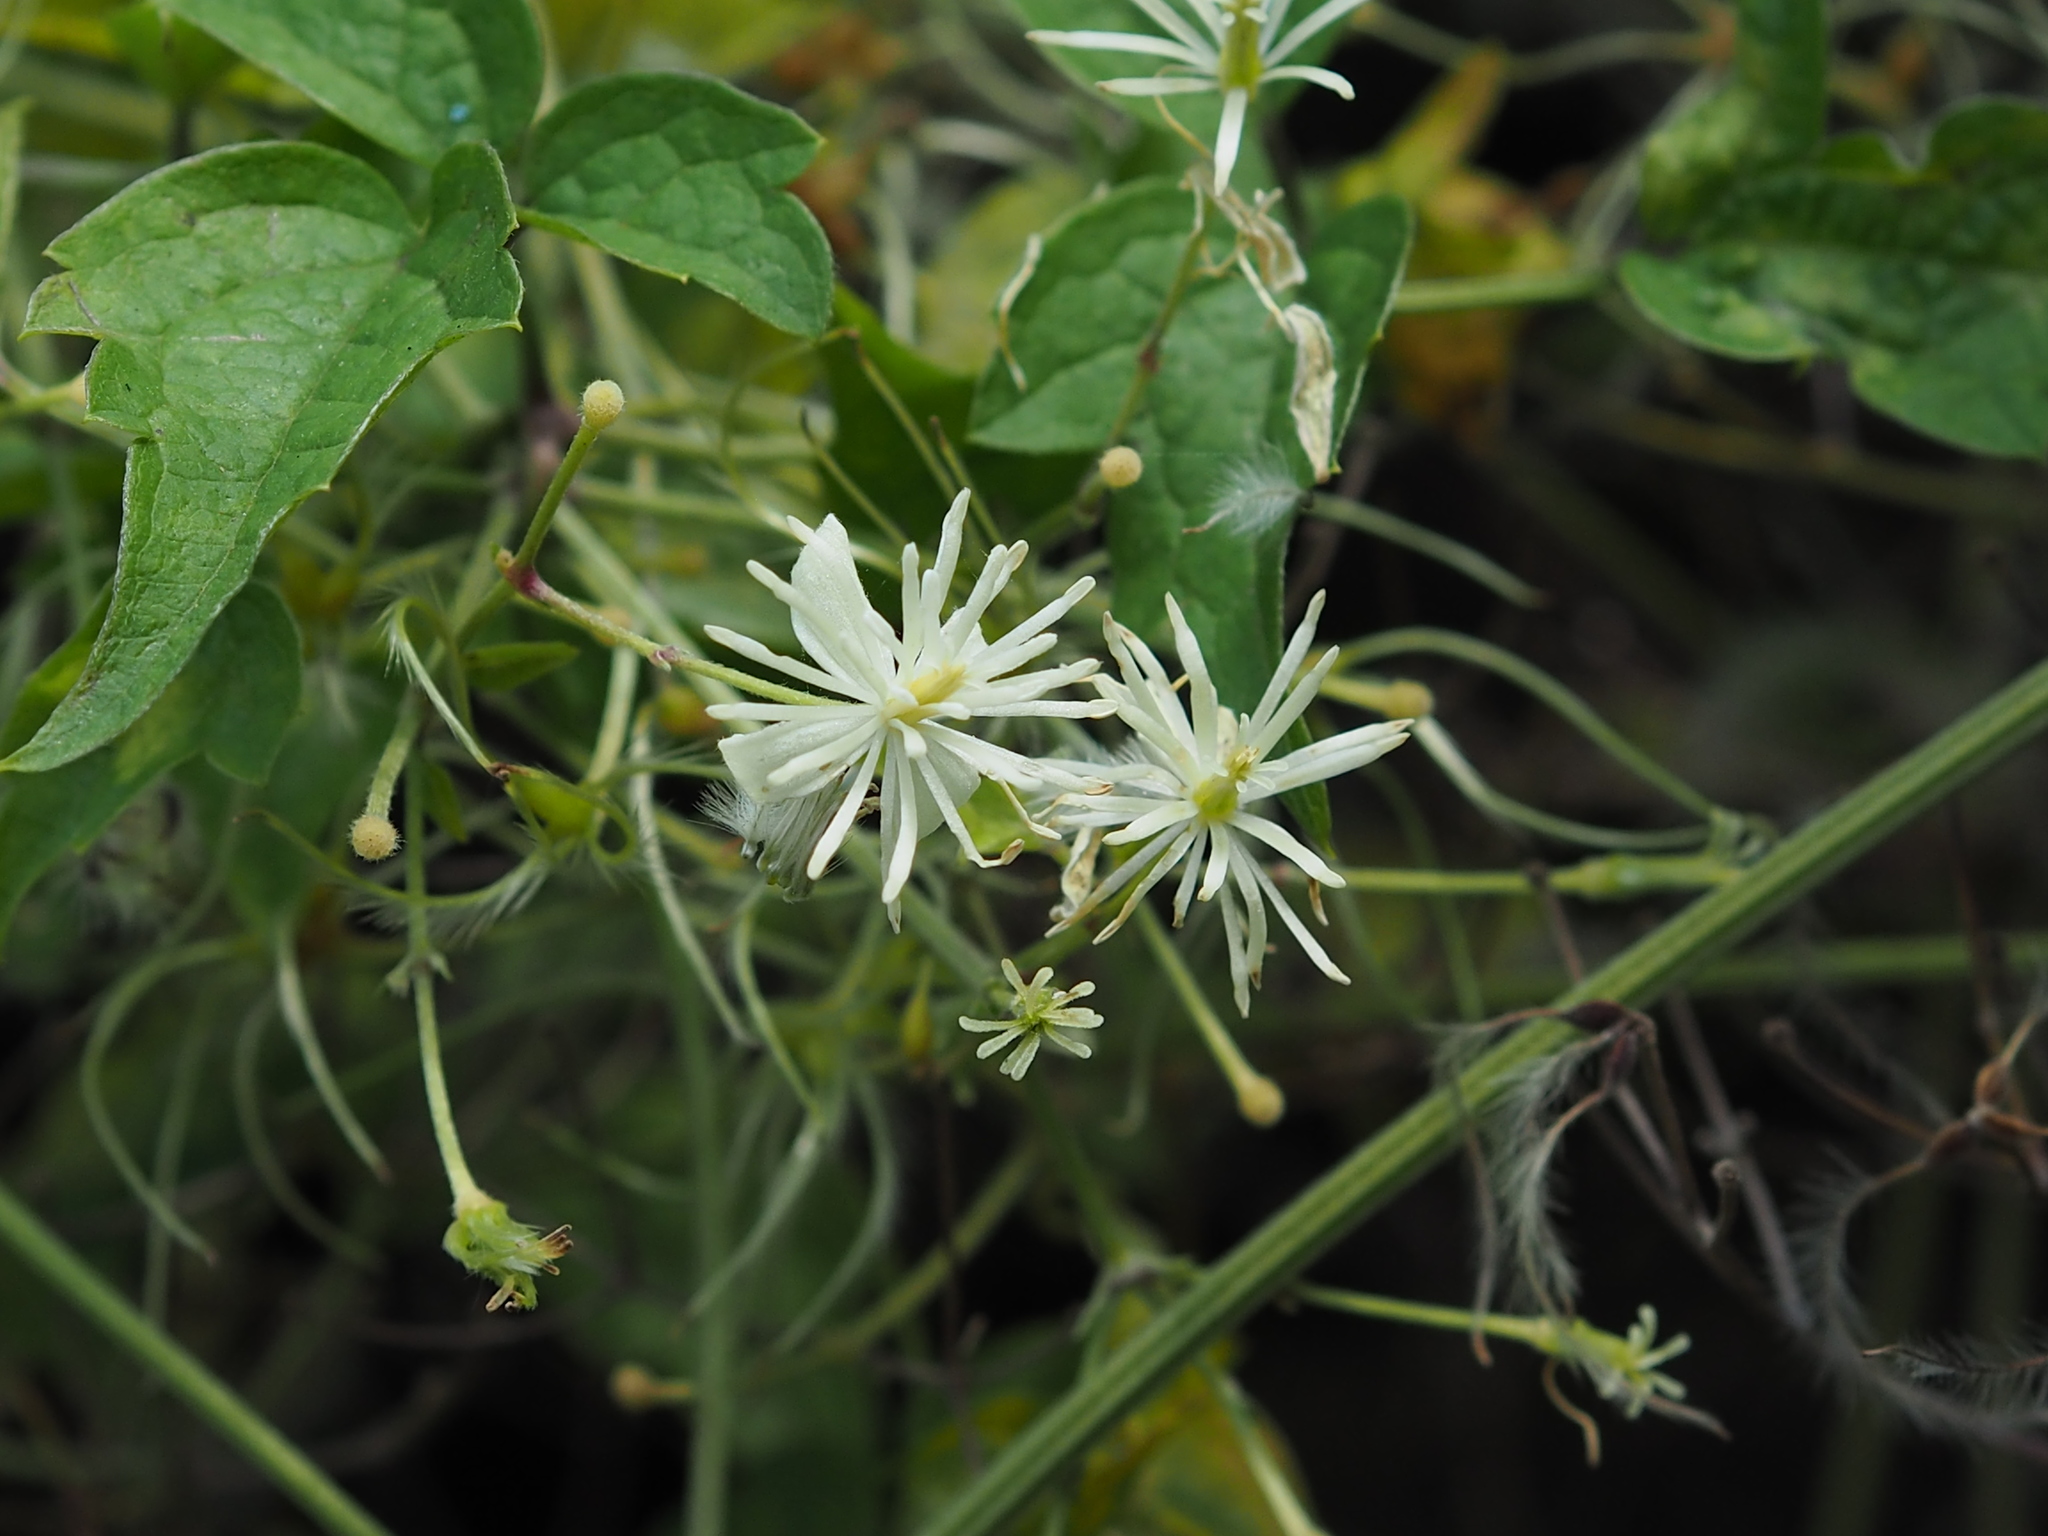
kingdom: Plantae
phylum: Tracheophyta
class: Magnoliopsida
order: Ranunculales
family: Ranunculaceae
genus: Clematis
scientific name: Clematis grata
